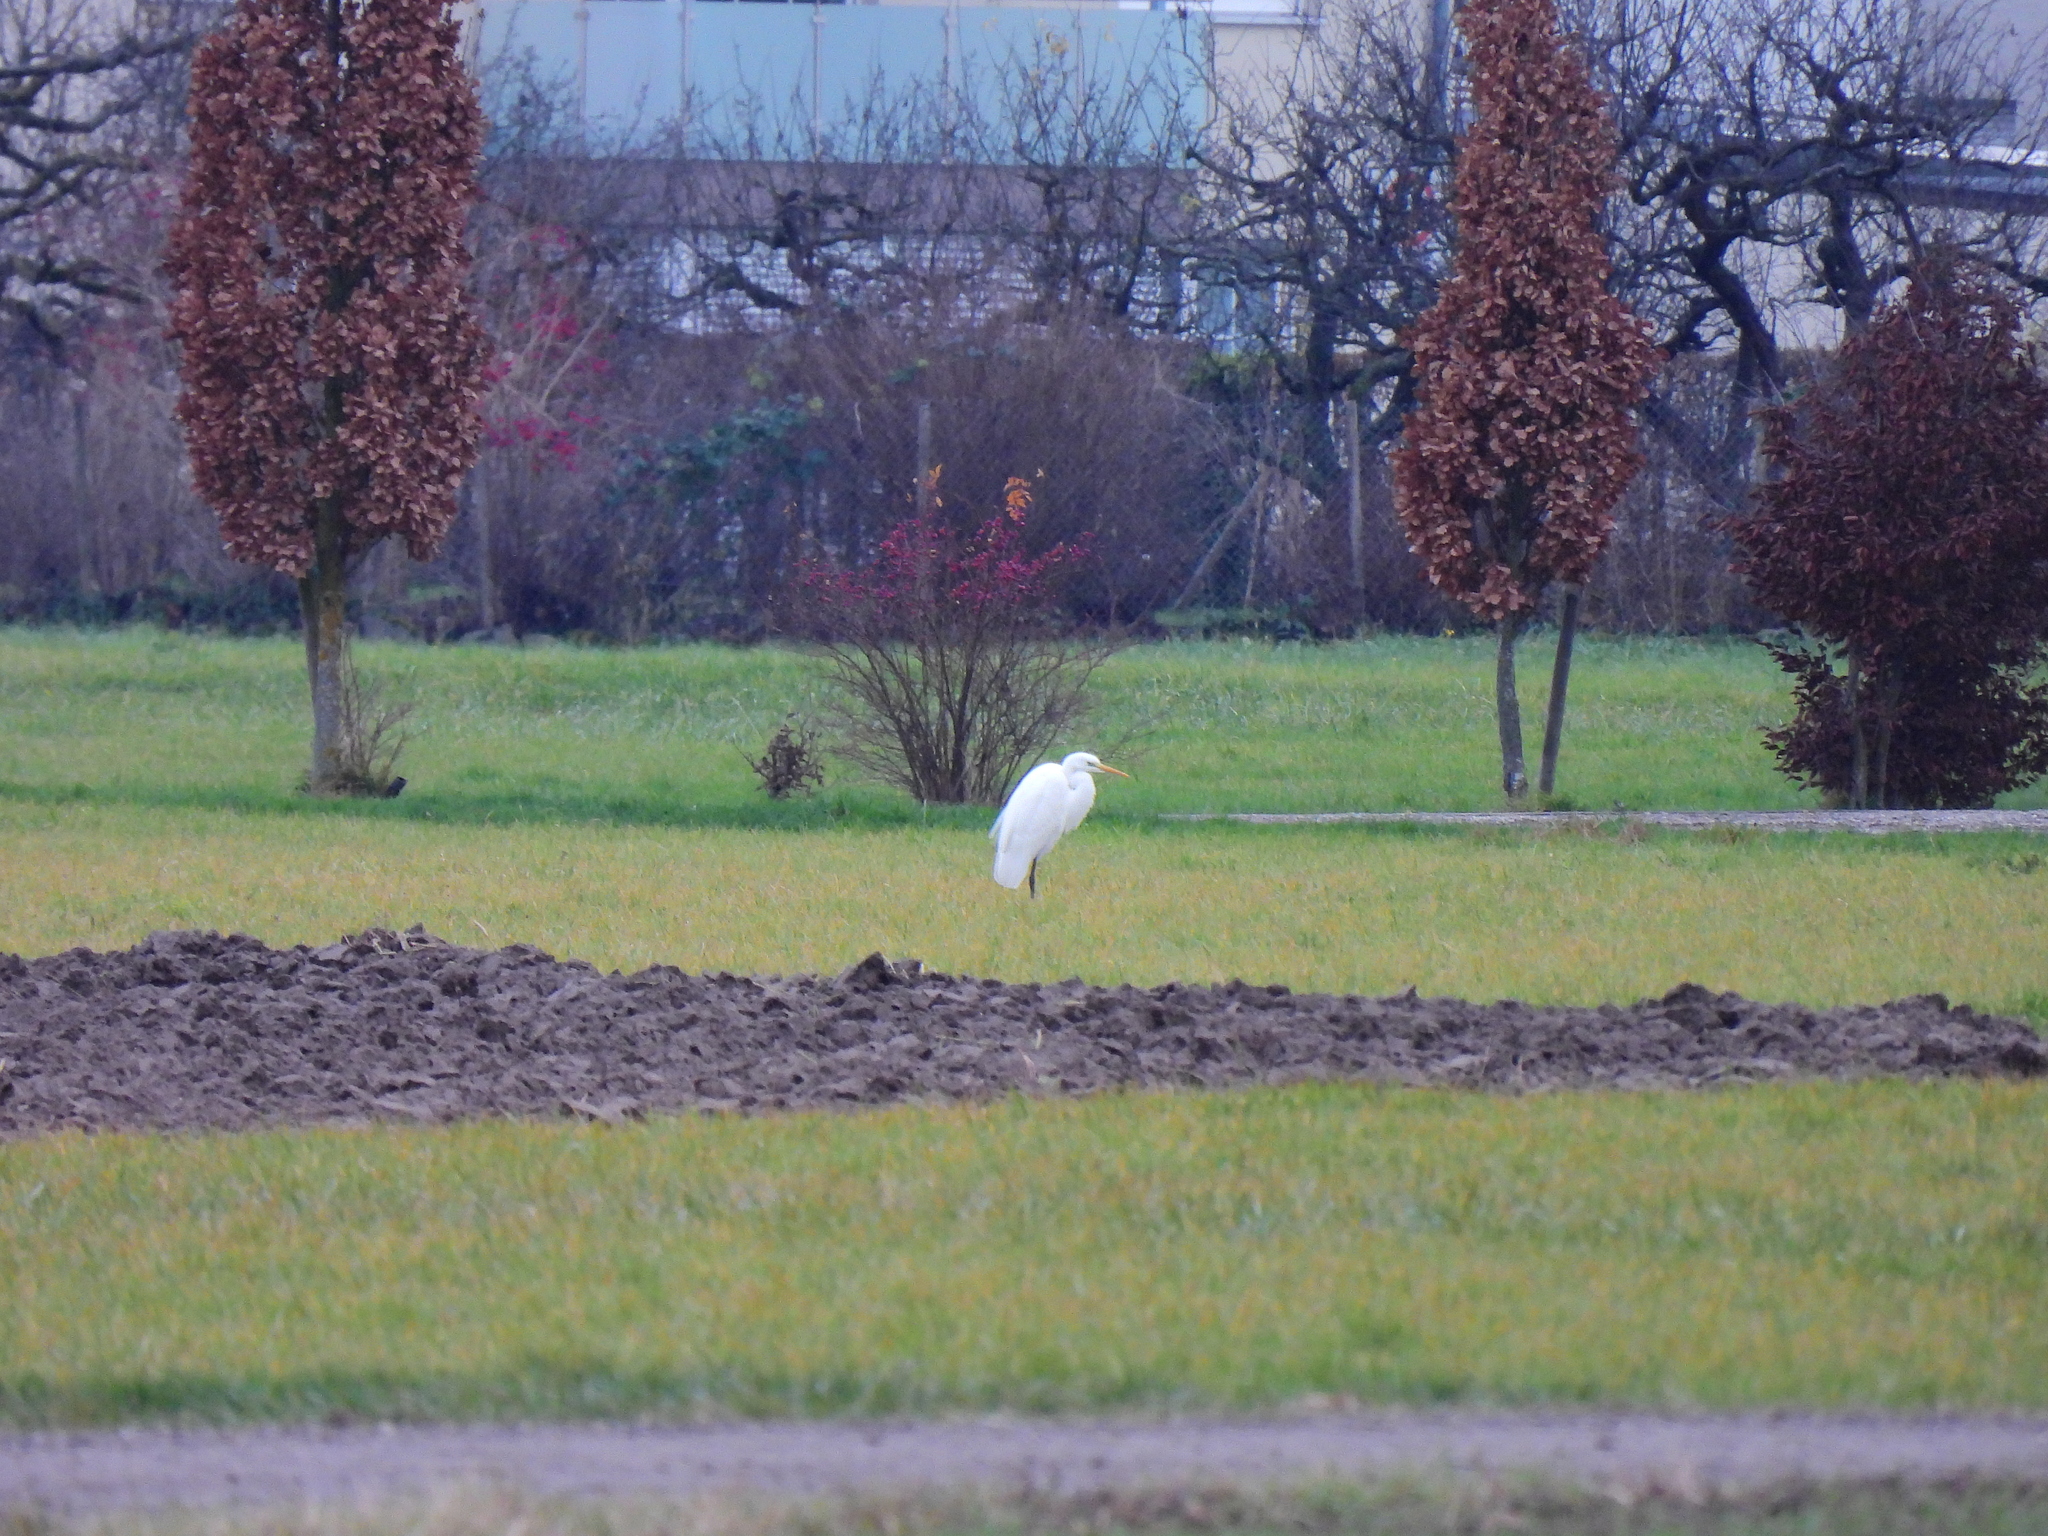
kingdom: Animalia
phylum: Chordata
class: Aves
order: Pelecaniformes
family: Ardeidae
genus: Ardea
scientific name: Ardea alba
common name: Great egret
